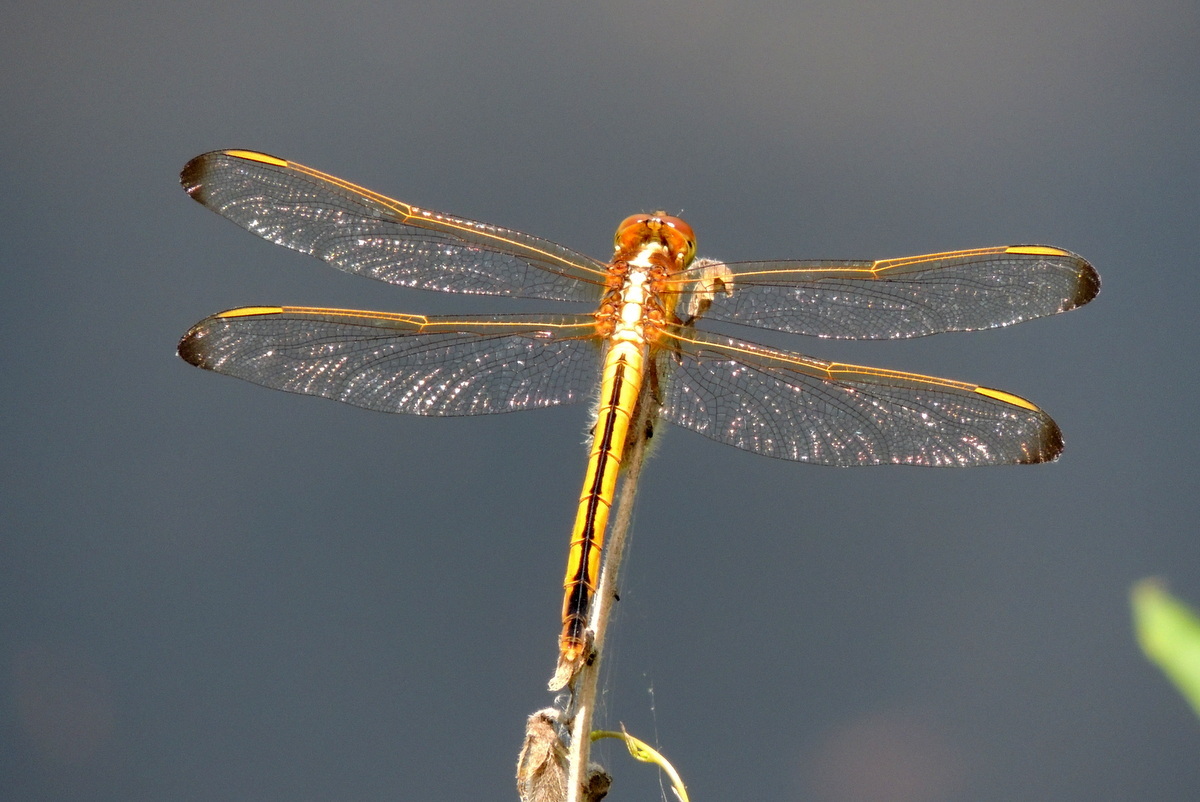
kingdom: Animalia
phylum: Arthropoda
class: Insecta
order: Odonata
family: Libellulidae
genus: Libellula
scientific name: Libellula needhami
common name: Needham's skimmer
